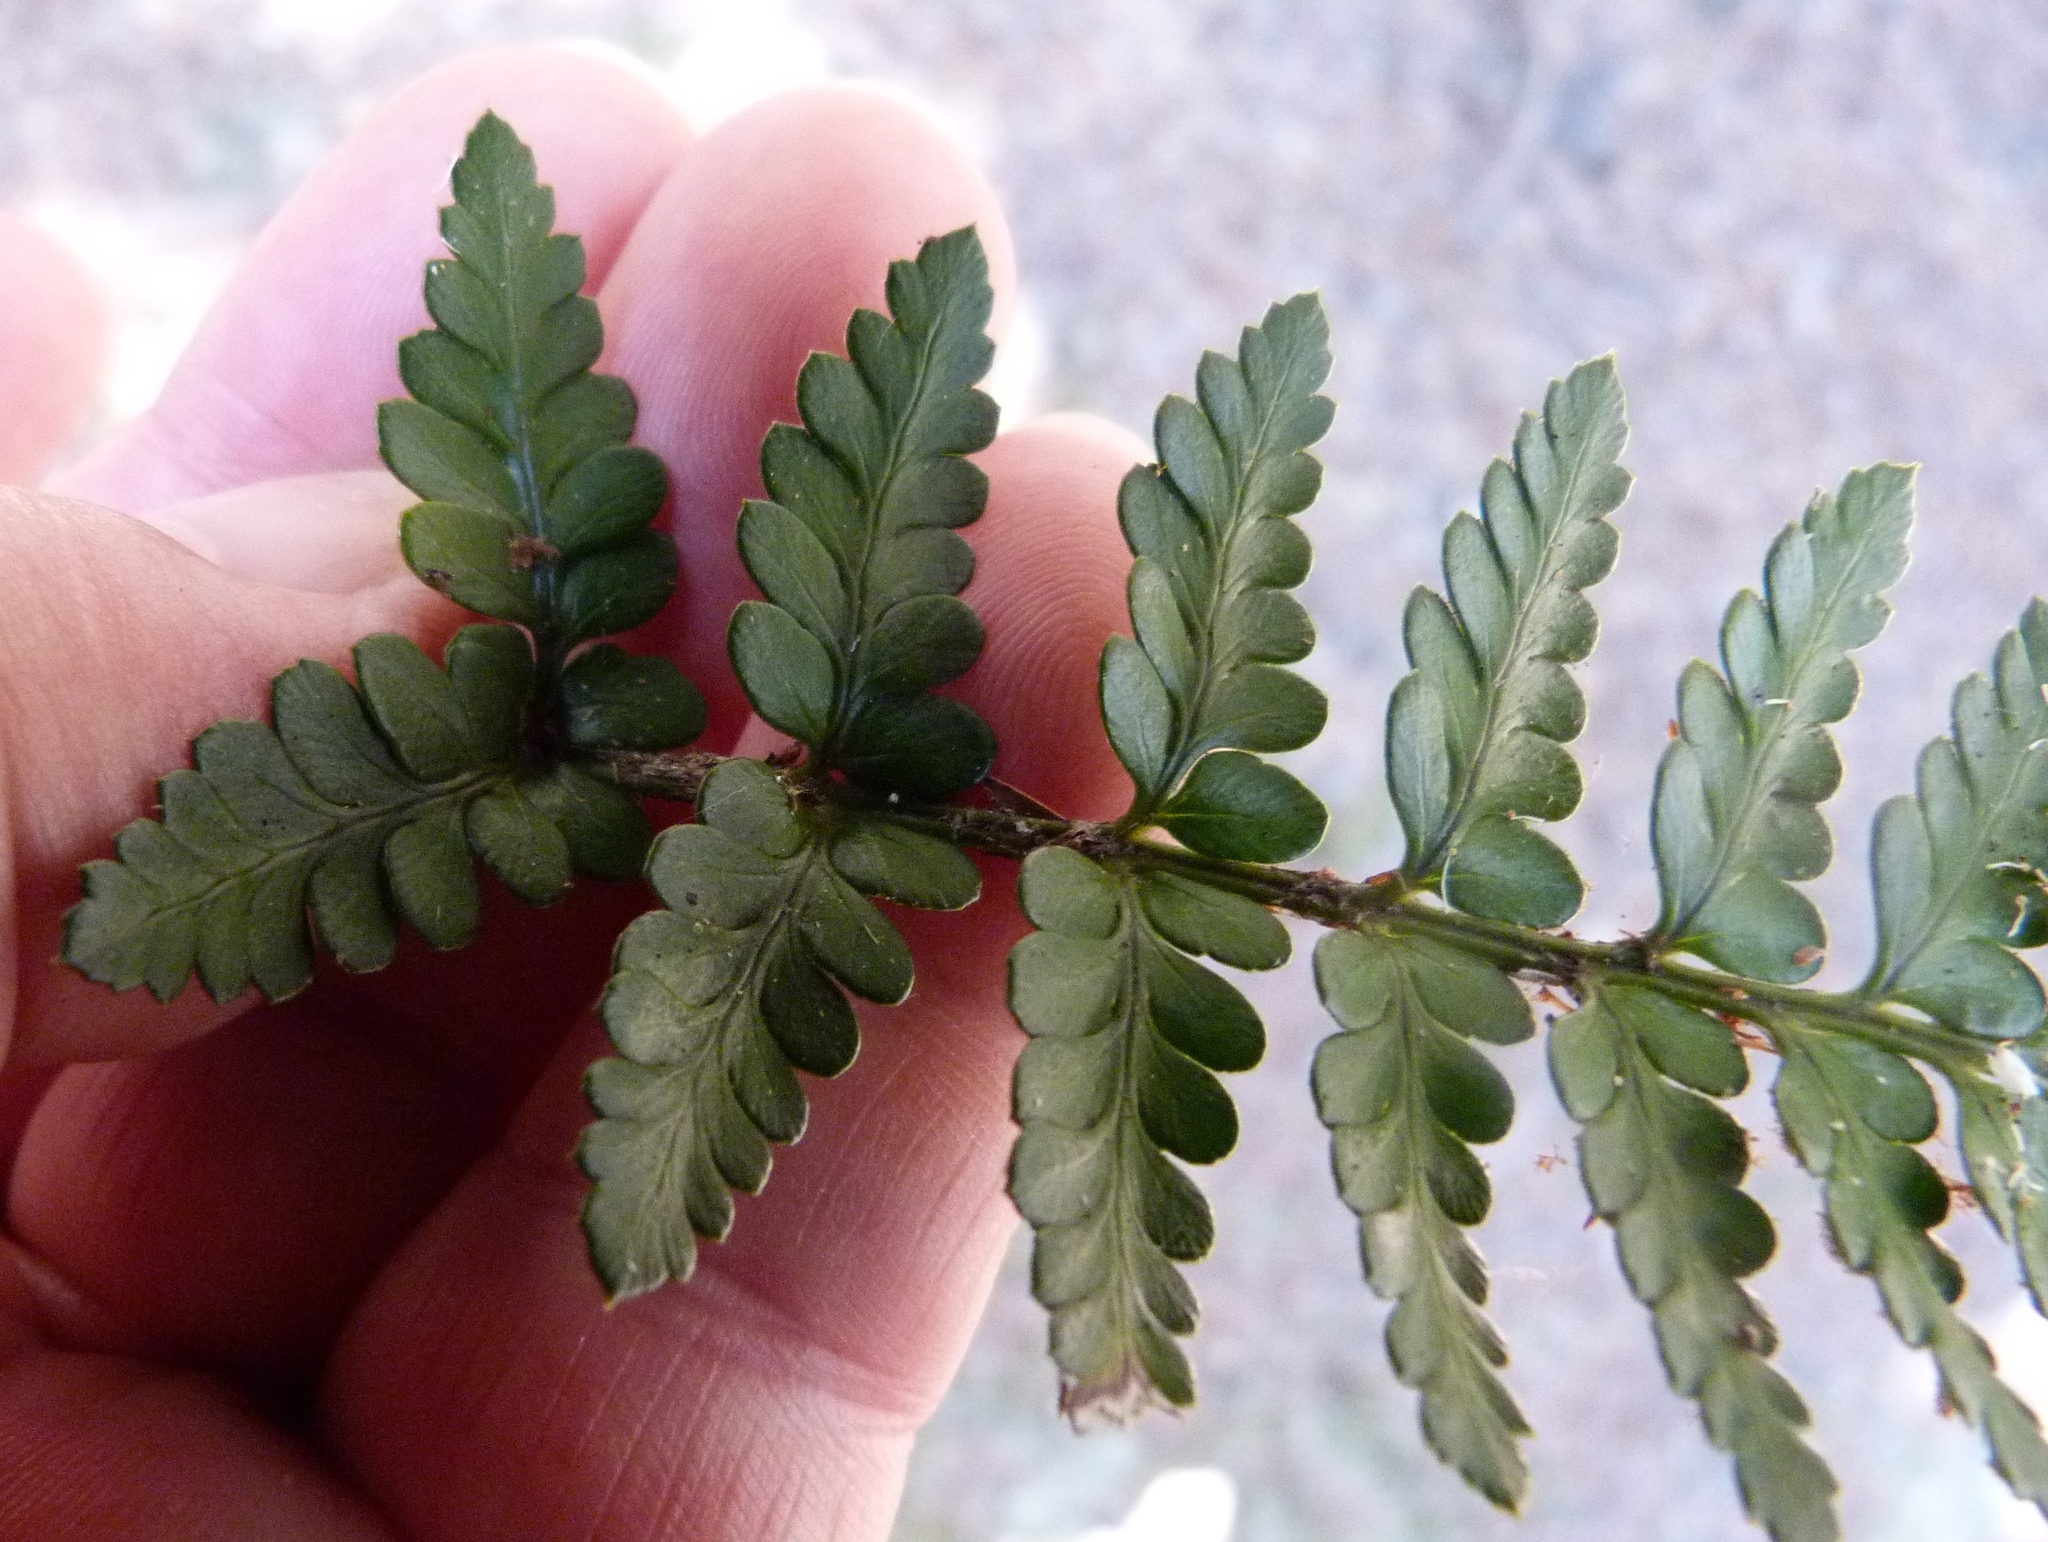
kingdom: Plantae
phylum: Tracheophyta
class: Polypodiopsida
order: Polypodiales
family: Dryopteridaceae
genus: Polystichum
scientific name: Polystichum oculatum
